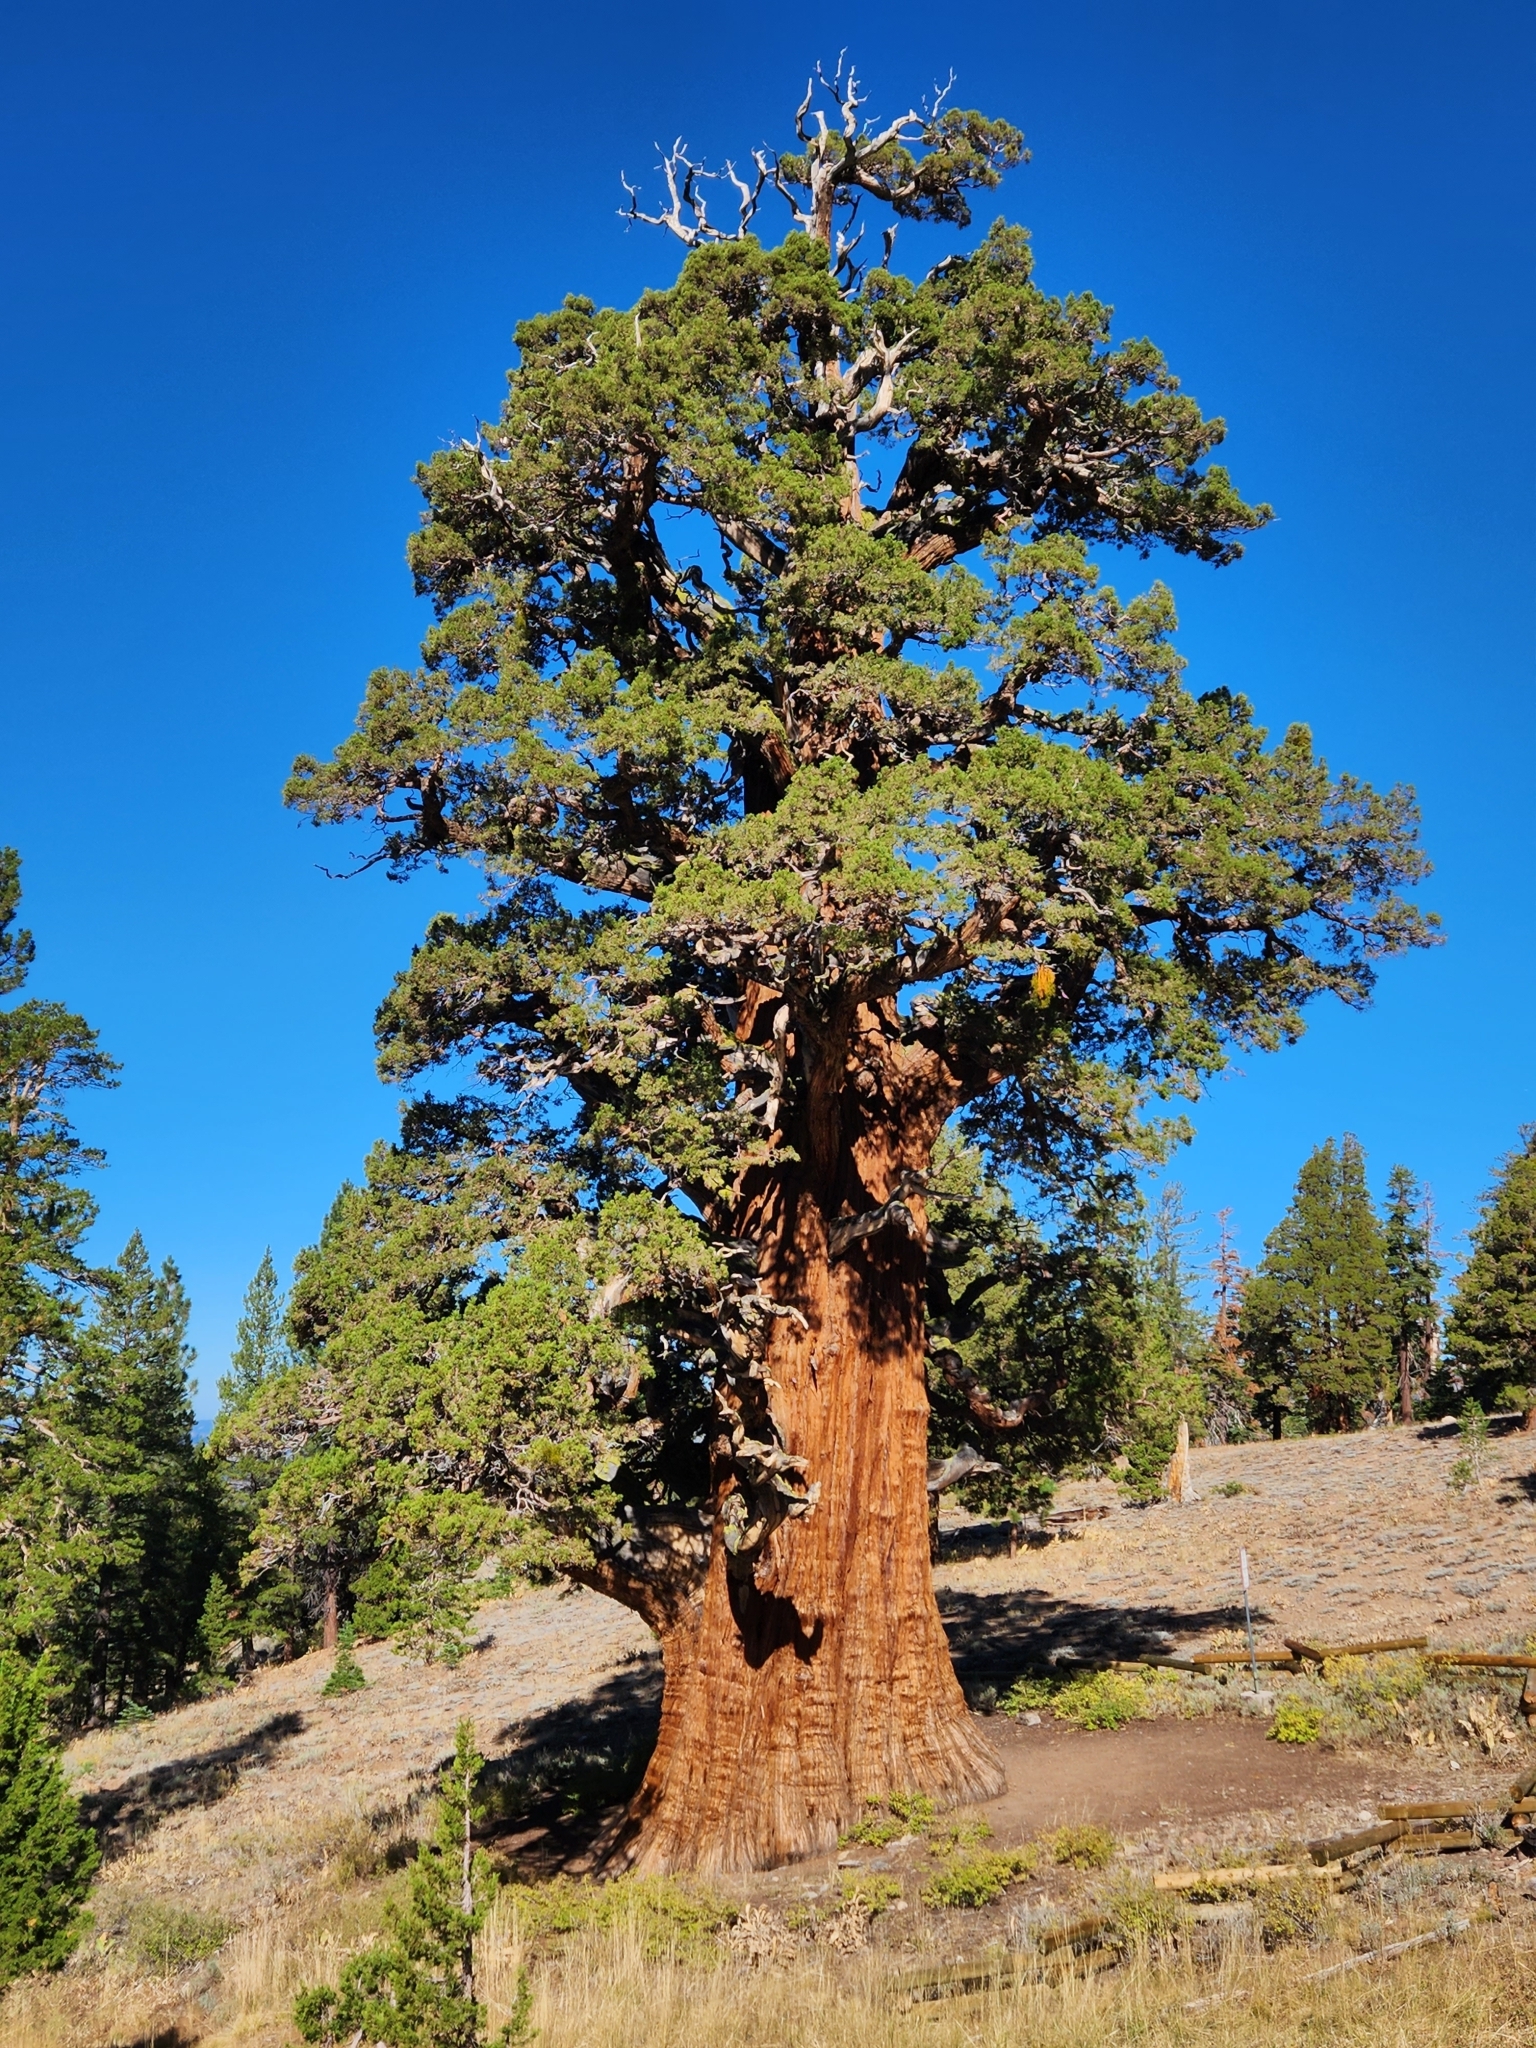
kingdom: Plantae
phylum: Tracheophyta
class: Pinopsida
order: Pinales
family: Cupressaceae
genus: Juniperus
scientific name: Juniperus occidentalis
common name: Western juniper
